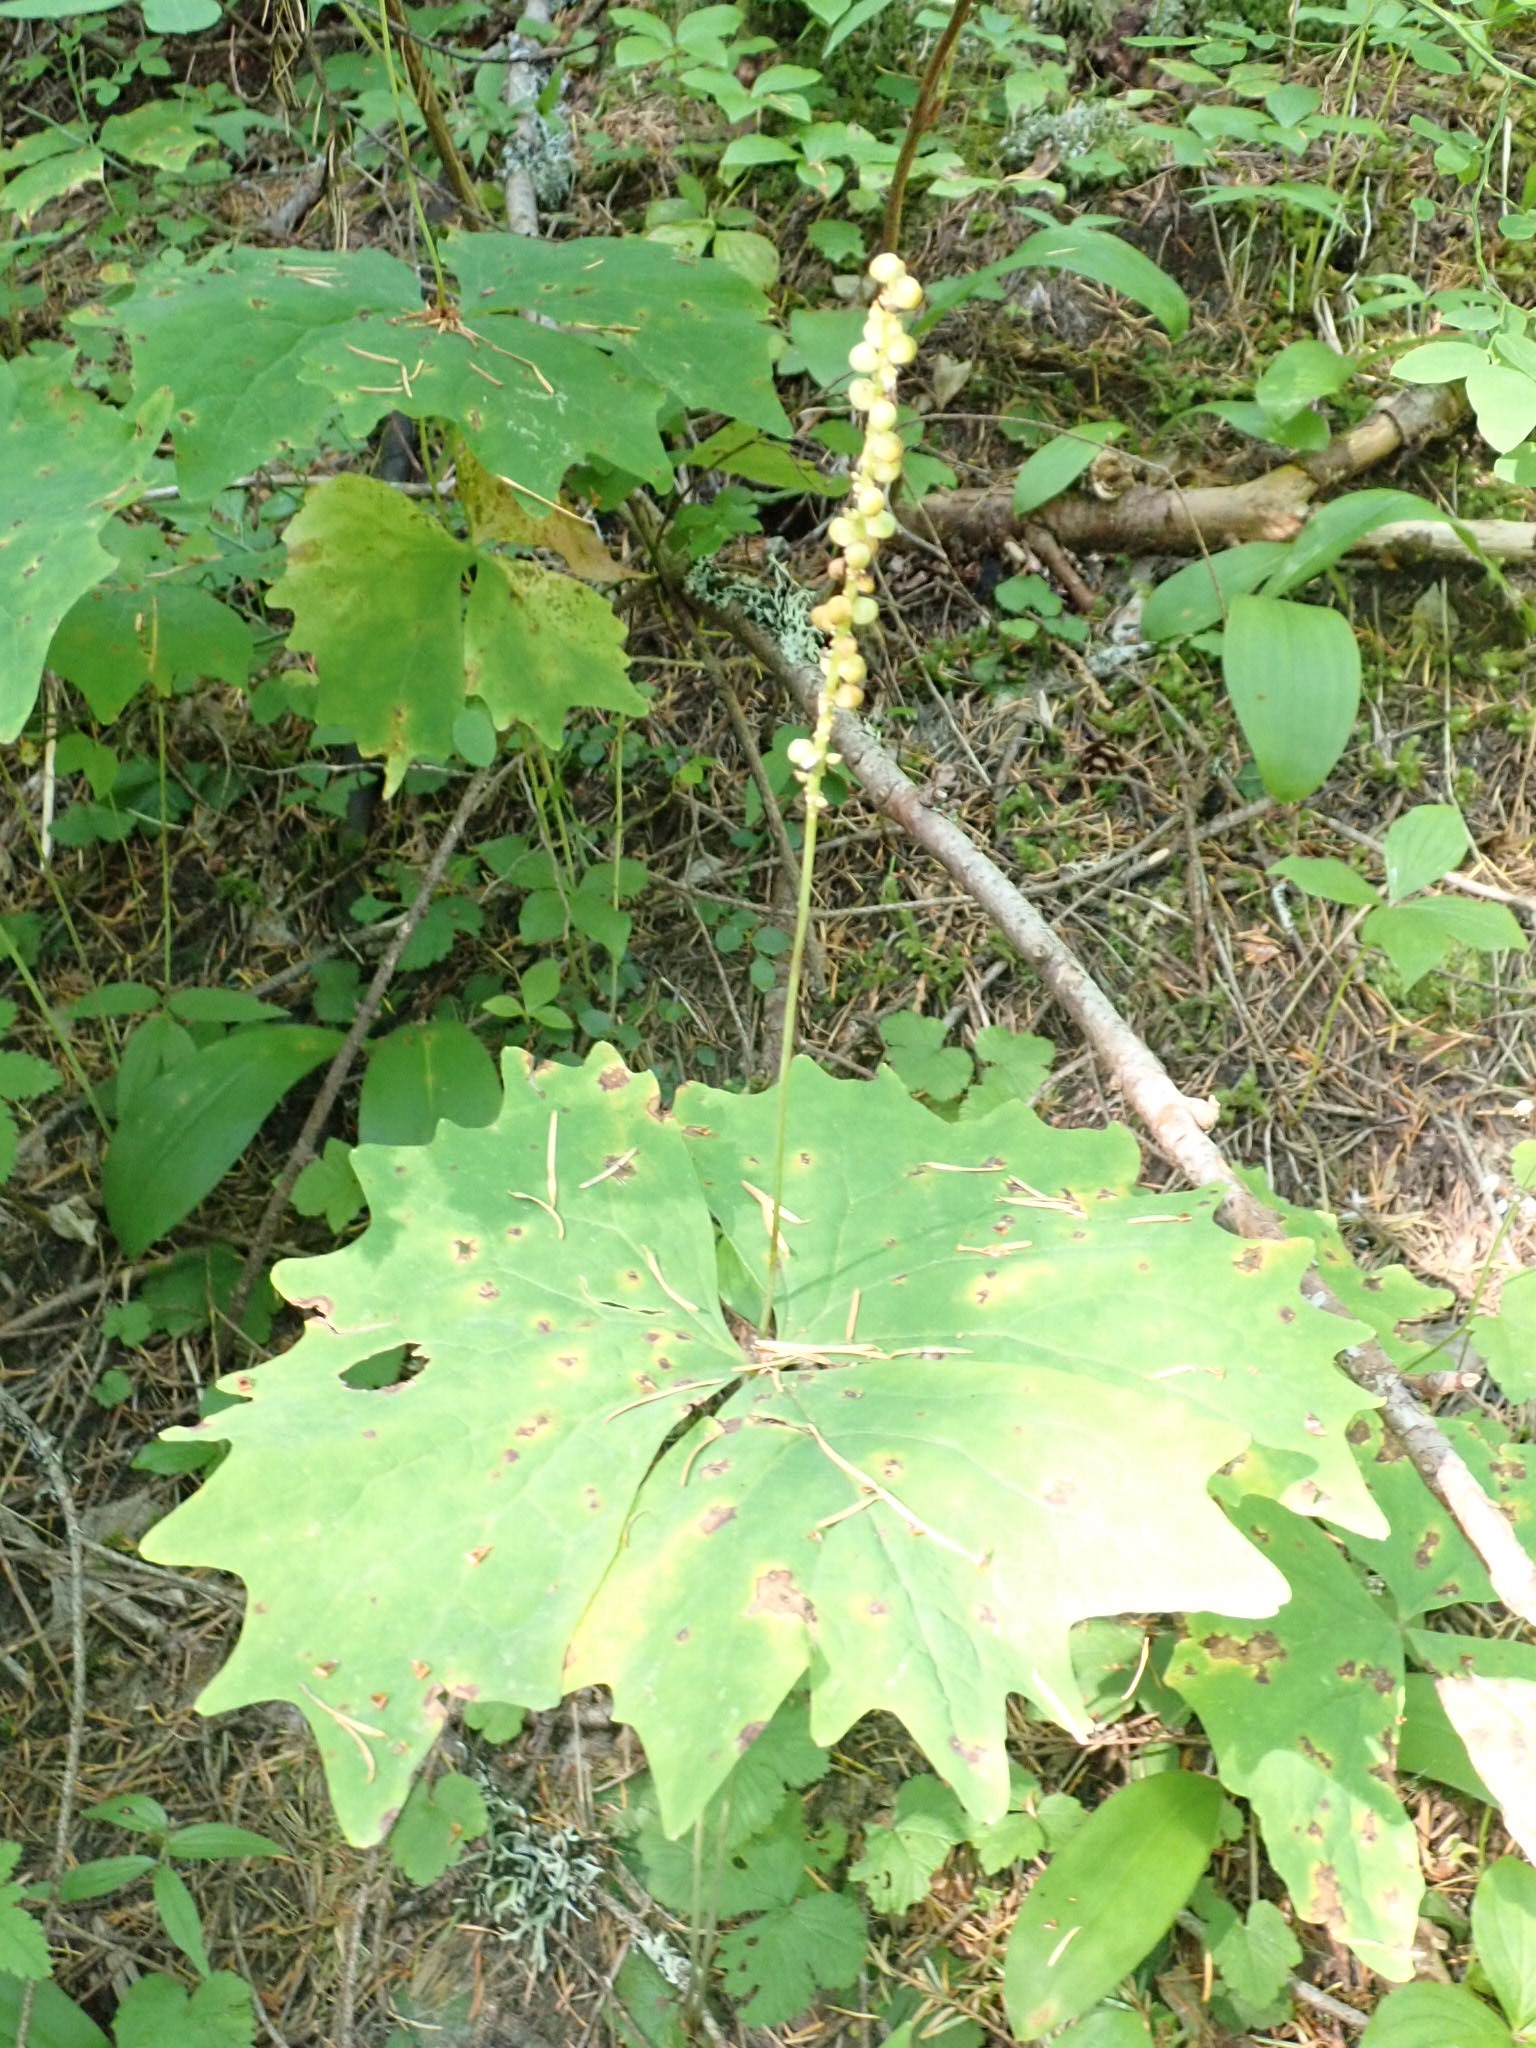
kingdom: Plantae
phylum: Tracheophyta
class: Magnoliopsida
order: Ranunculales
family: Berberidaceae
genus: Achlys
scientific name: Achlys triphylla
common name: Vanilla-leaf
